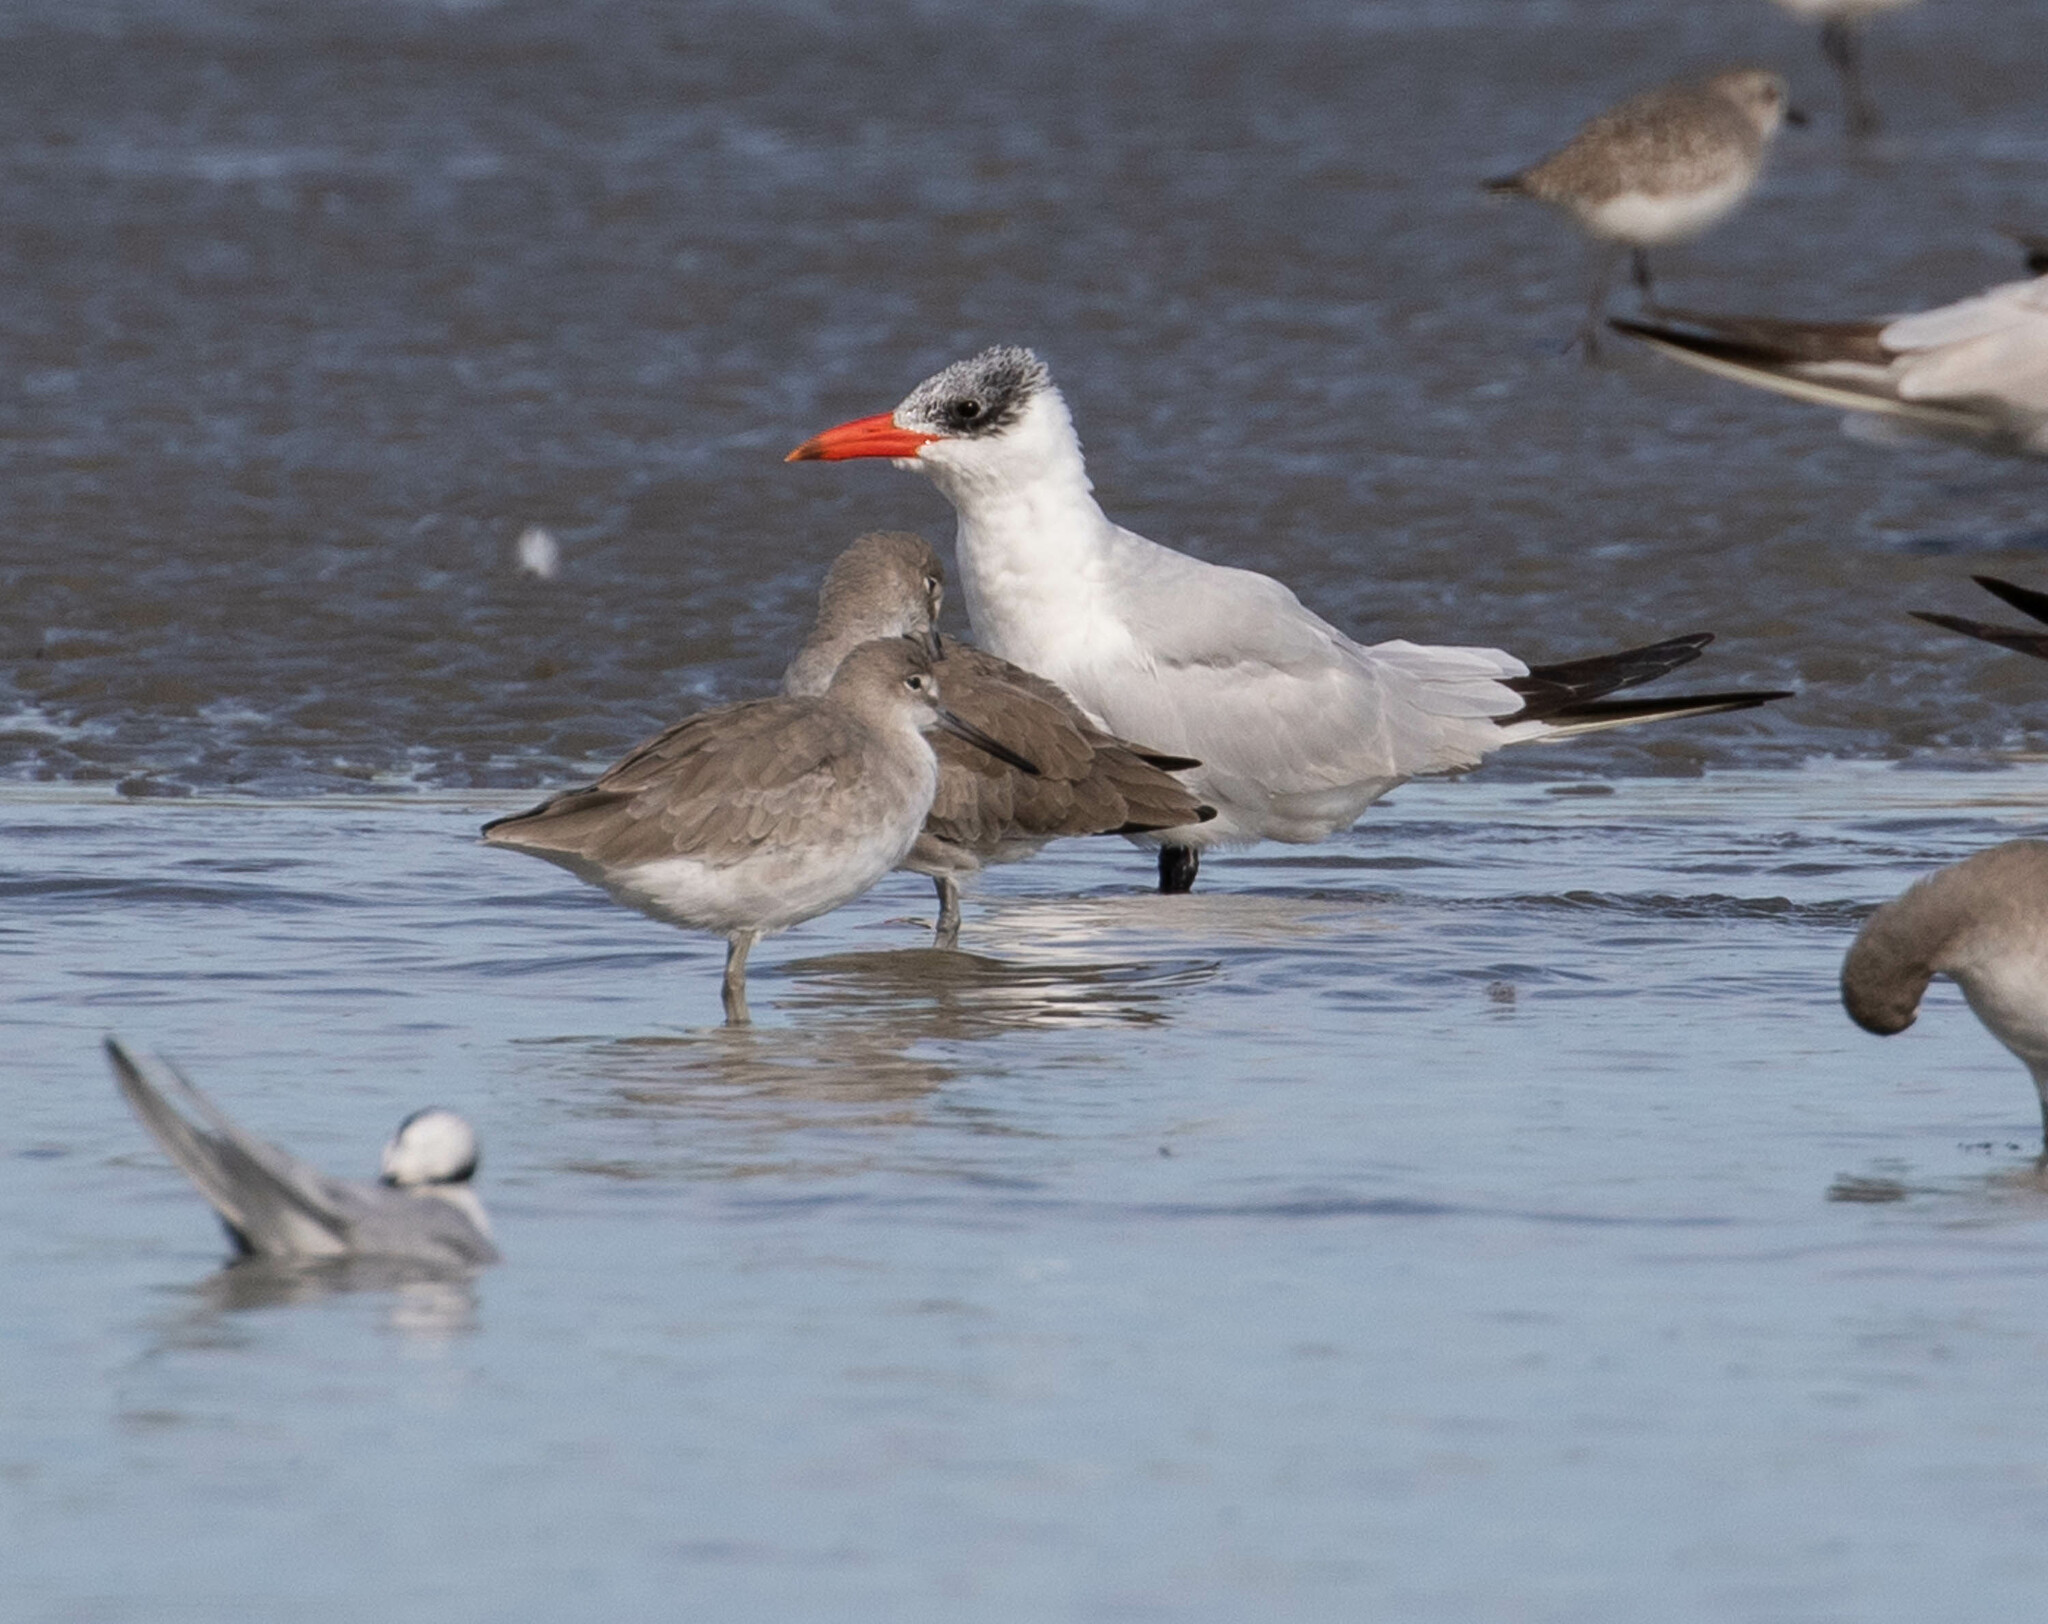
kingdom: Animalia
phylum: Chordata
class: Aves
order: Charadriiformes
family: Laridae
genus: Hydroprogne
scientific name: Hydroprogne caspia
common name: Caspian tern
